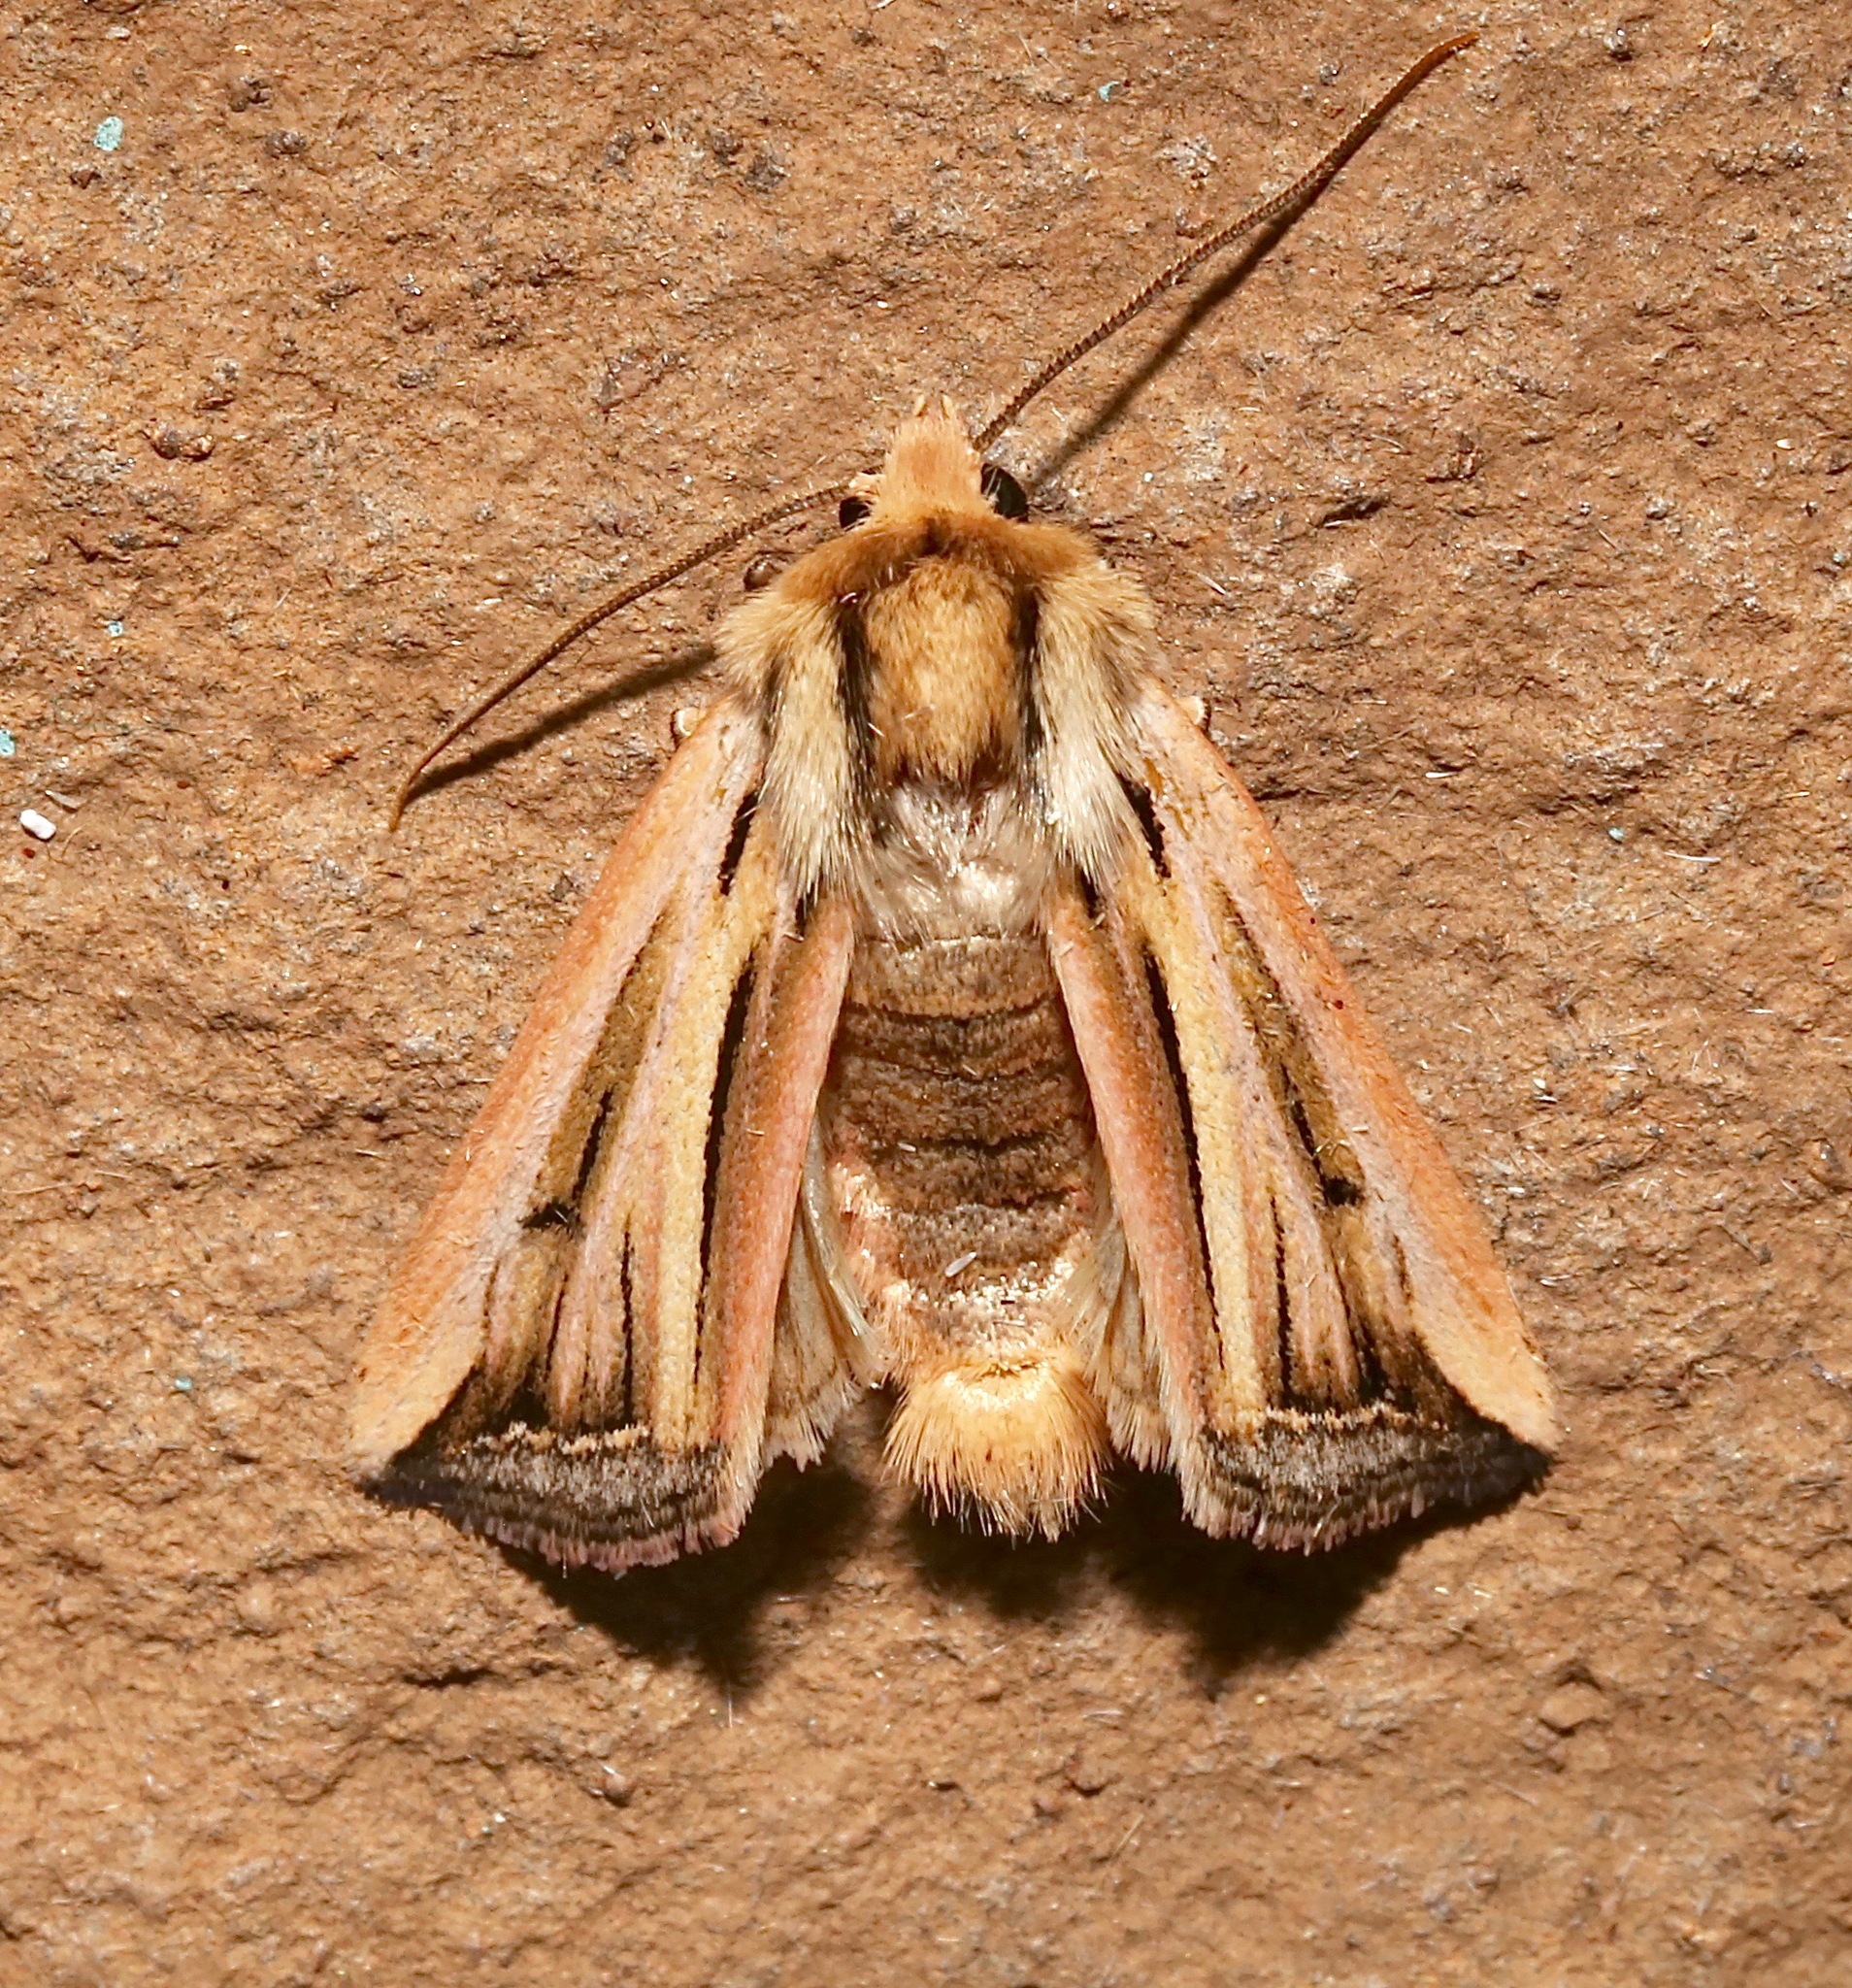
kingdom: Animalia
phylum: Arthropoda
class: Insecta
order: Lepidoptera
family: Noctuidae
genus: Eriopyga
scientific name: Eriopyga ferricola
